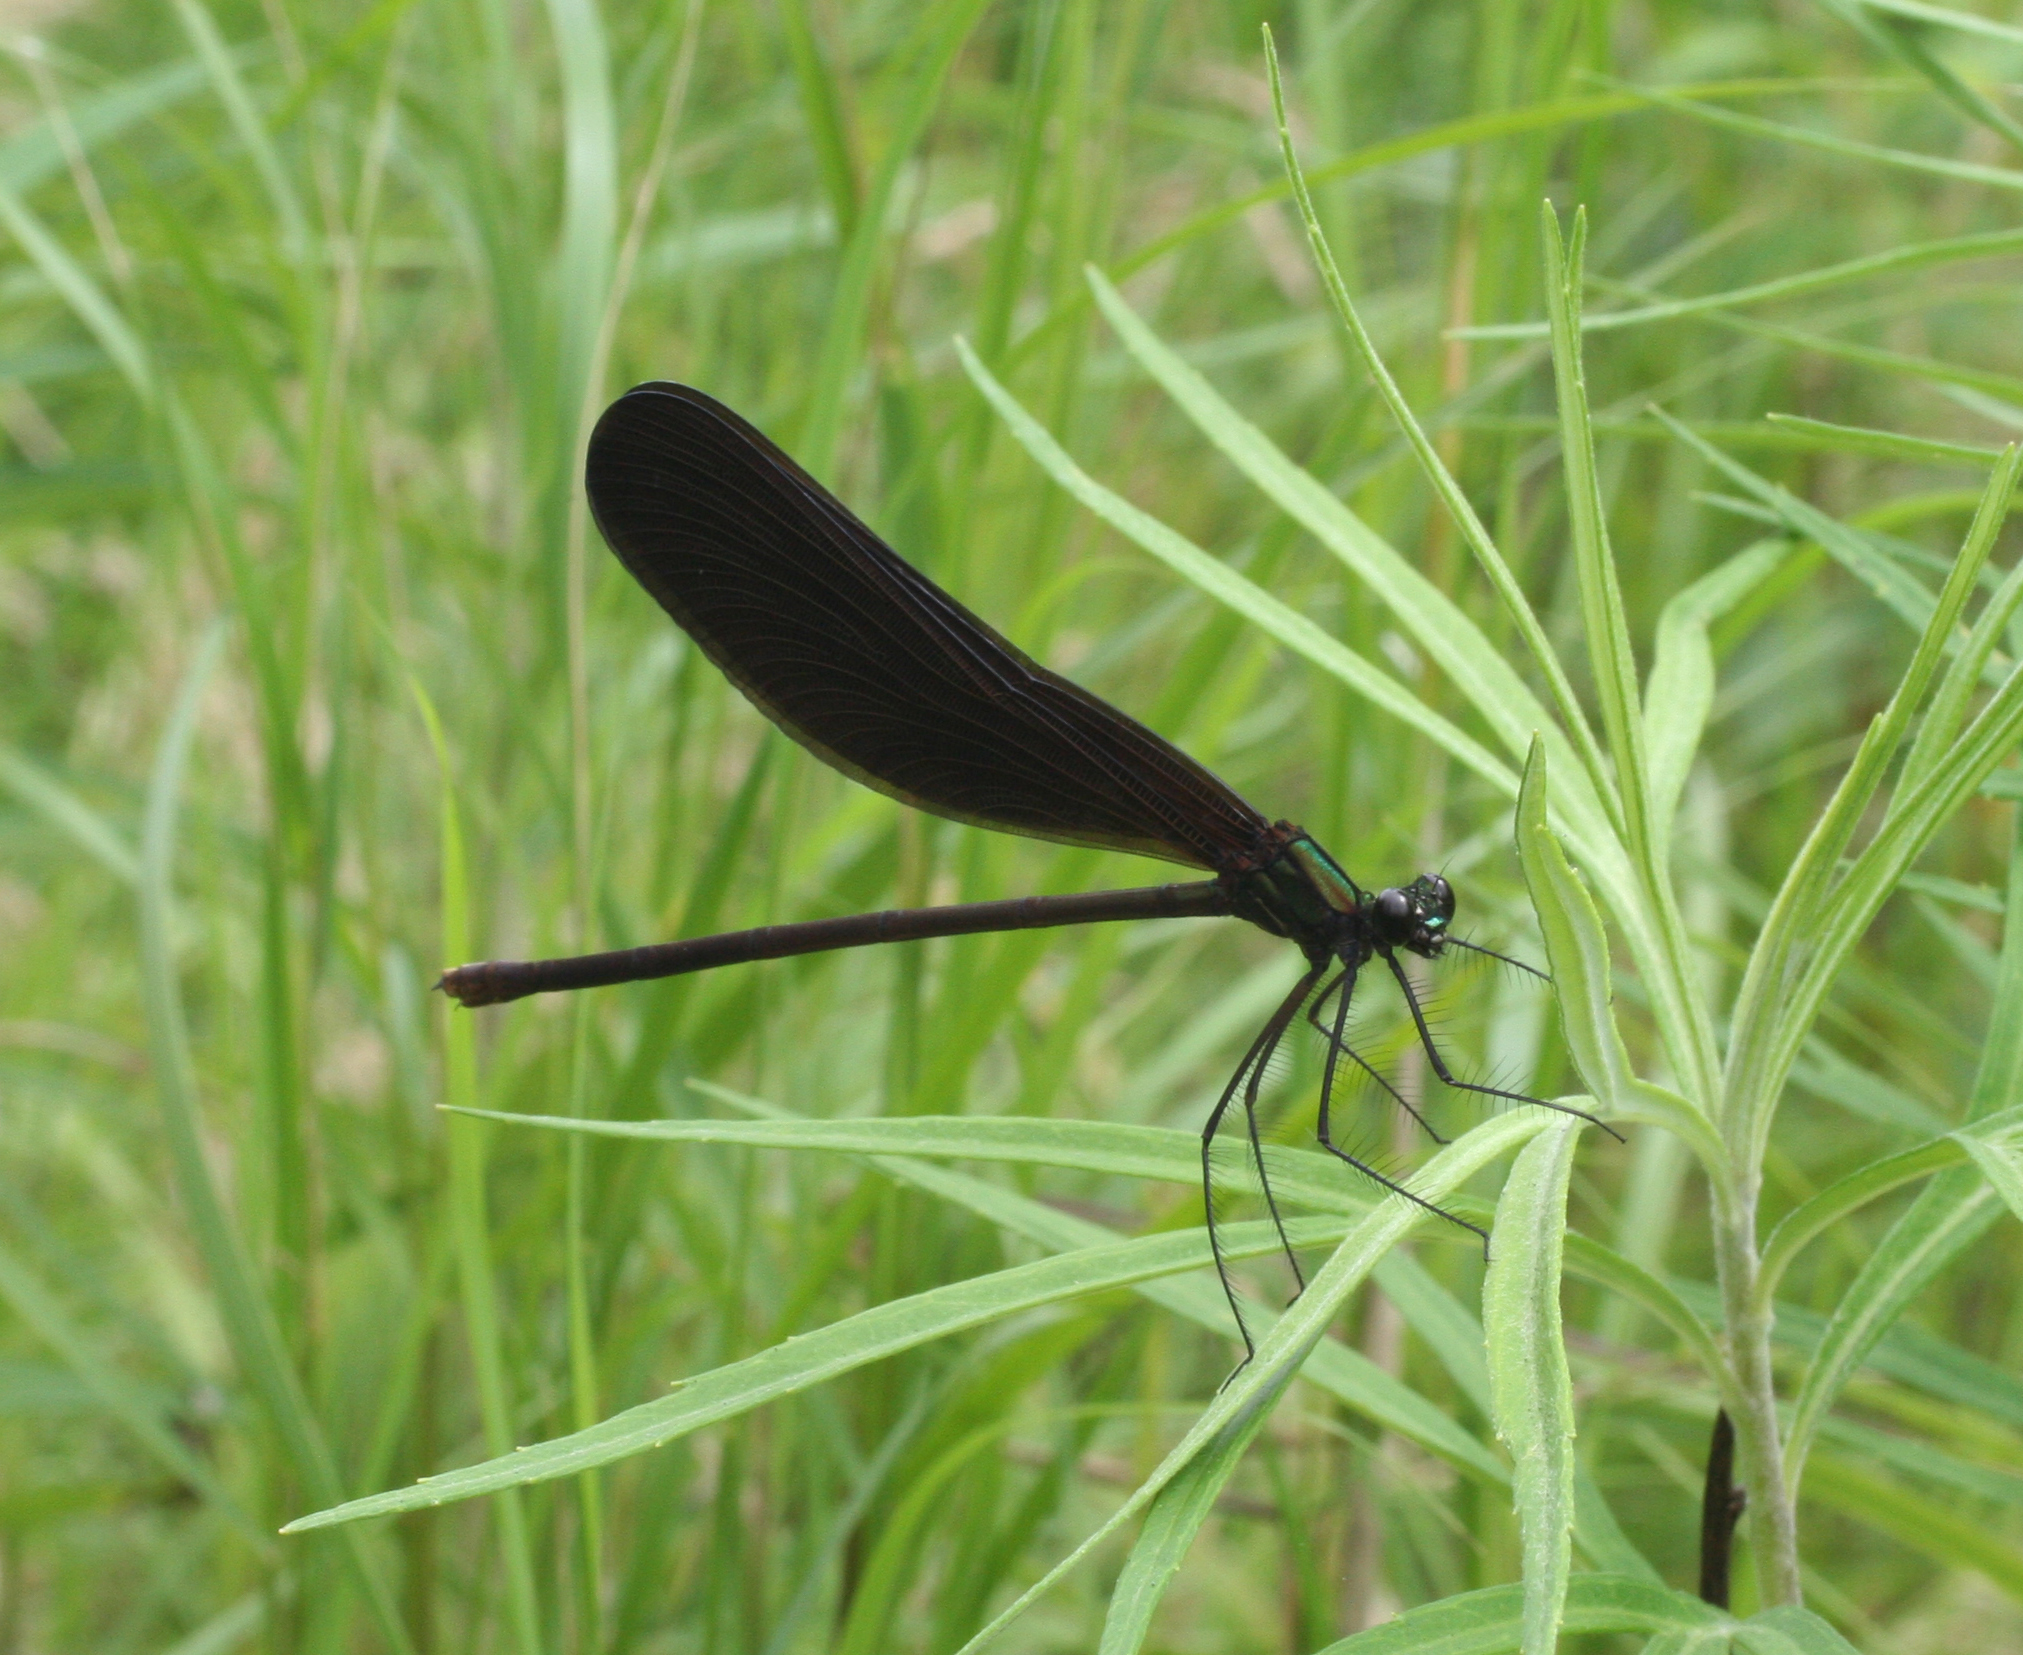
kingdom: Animalia
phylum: Arthropoda
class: Insecta
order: Odonata
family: Calopterygidae
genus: Atrocalopteryx
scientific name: Atrocalopteryx atrata
